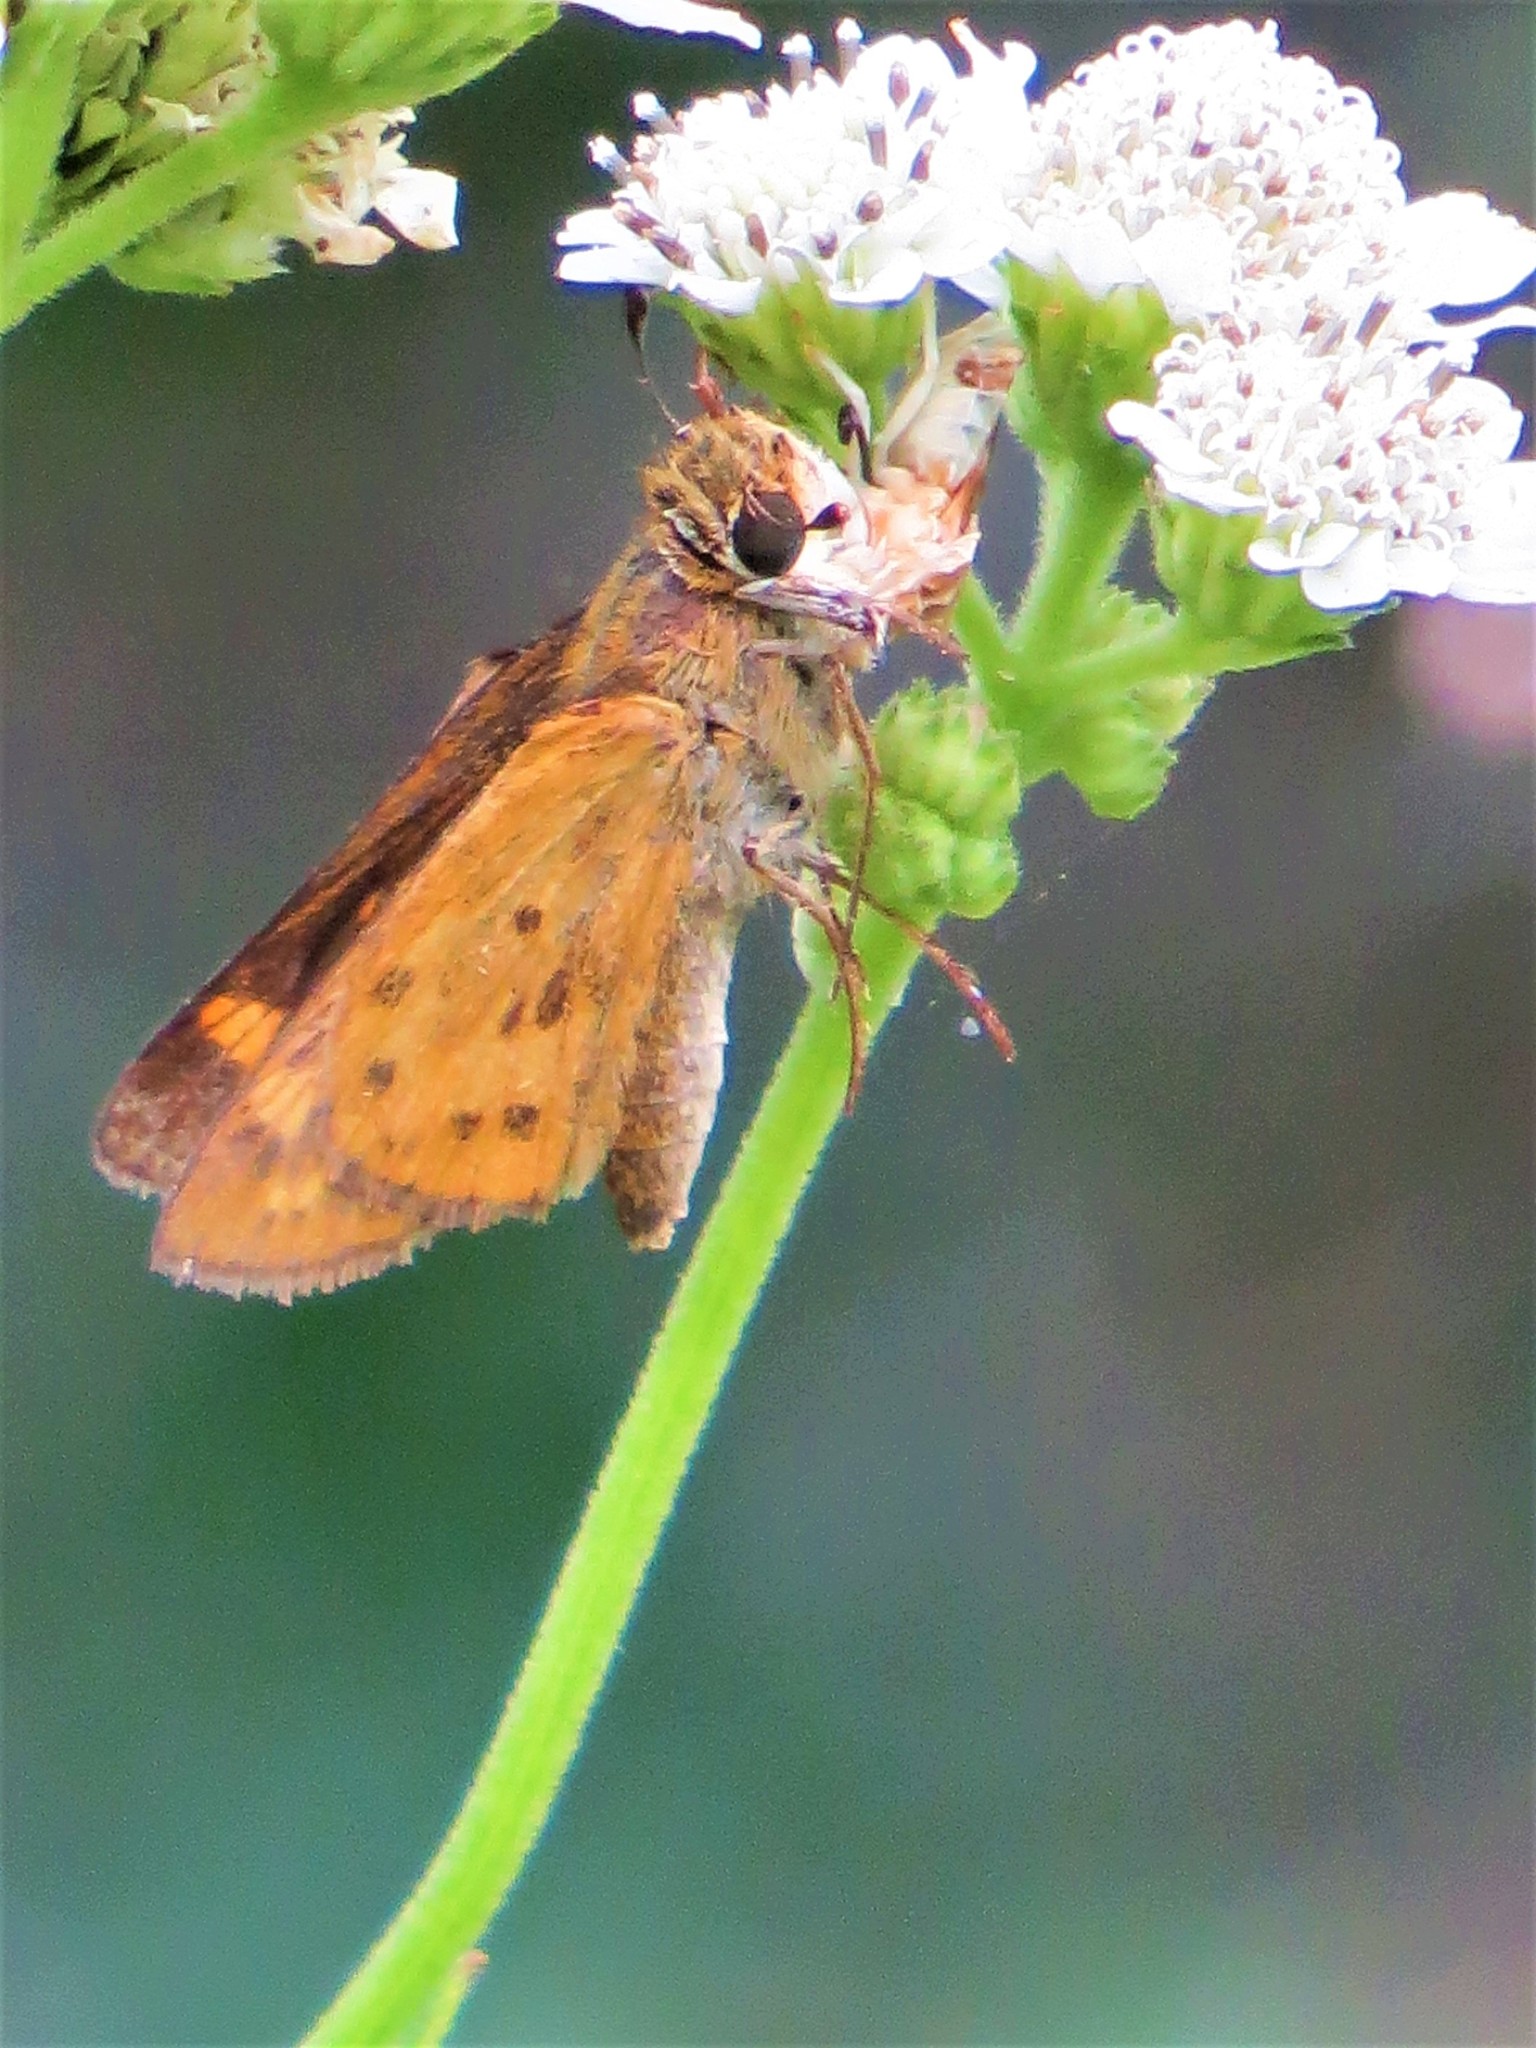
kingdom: Animalia
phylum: Arthropoda
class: Insecta
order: Lepidoptera
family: Hesperiidae
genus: Hylephila
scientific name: Hylephila phyleus
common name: Fiery skipper
